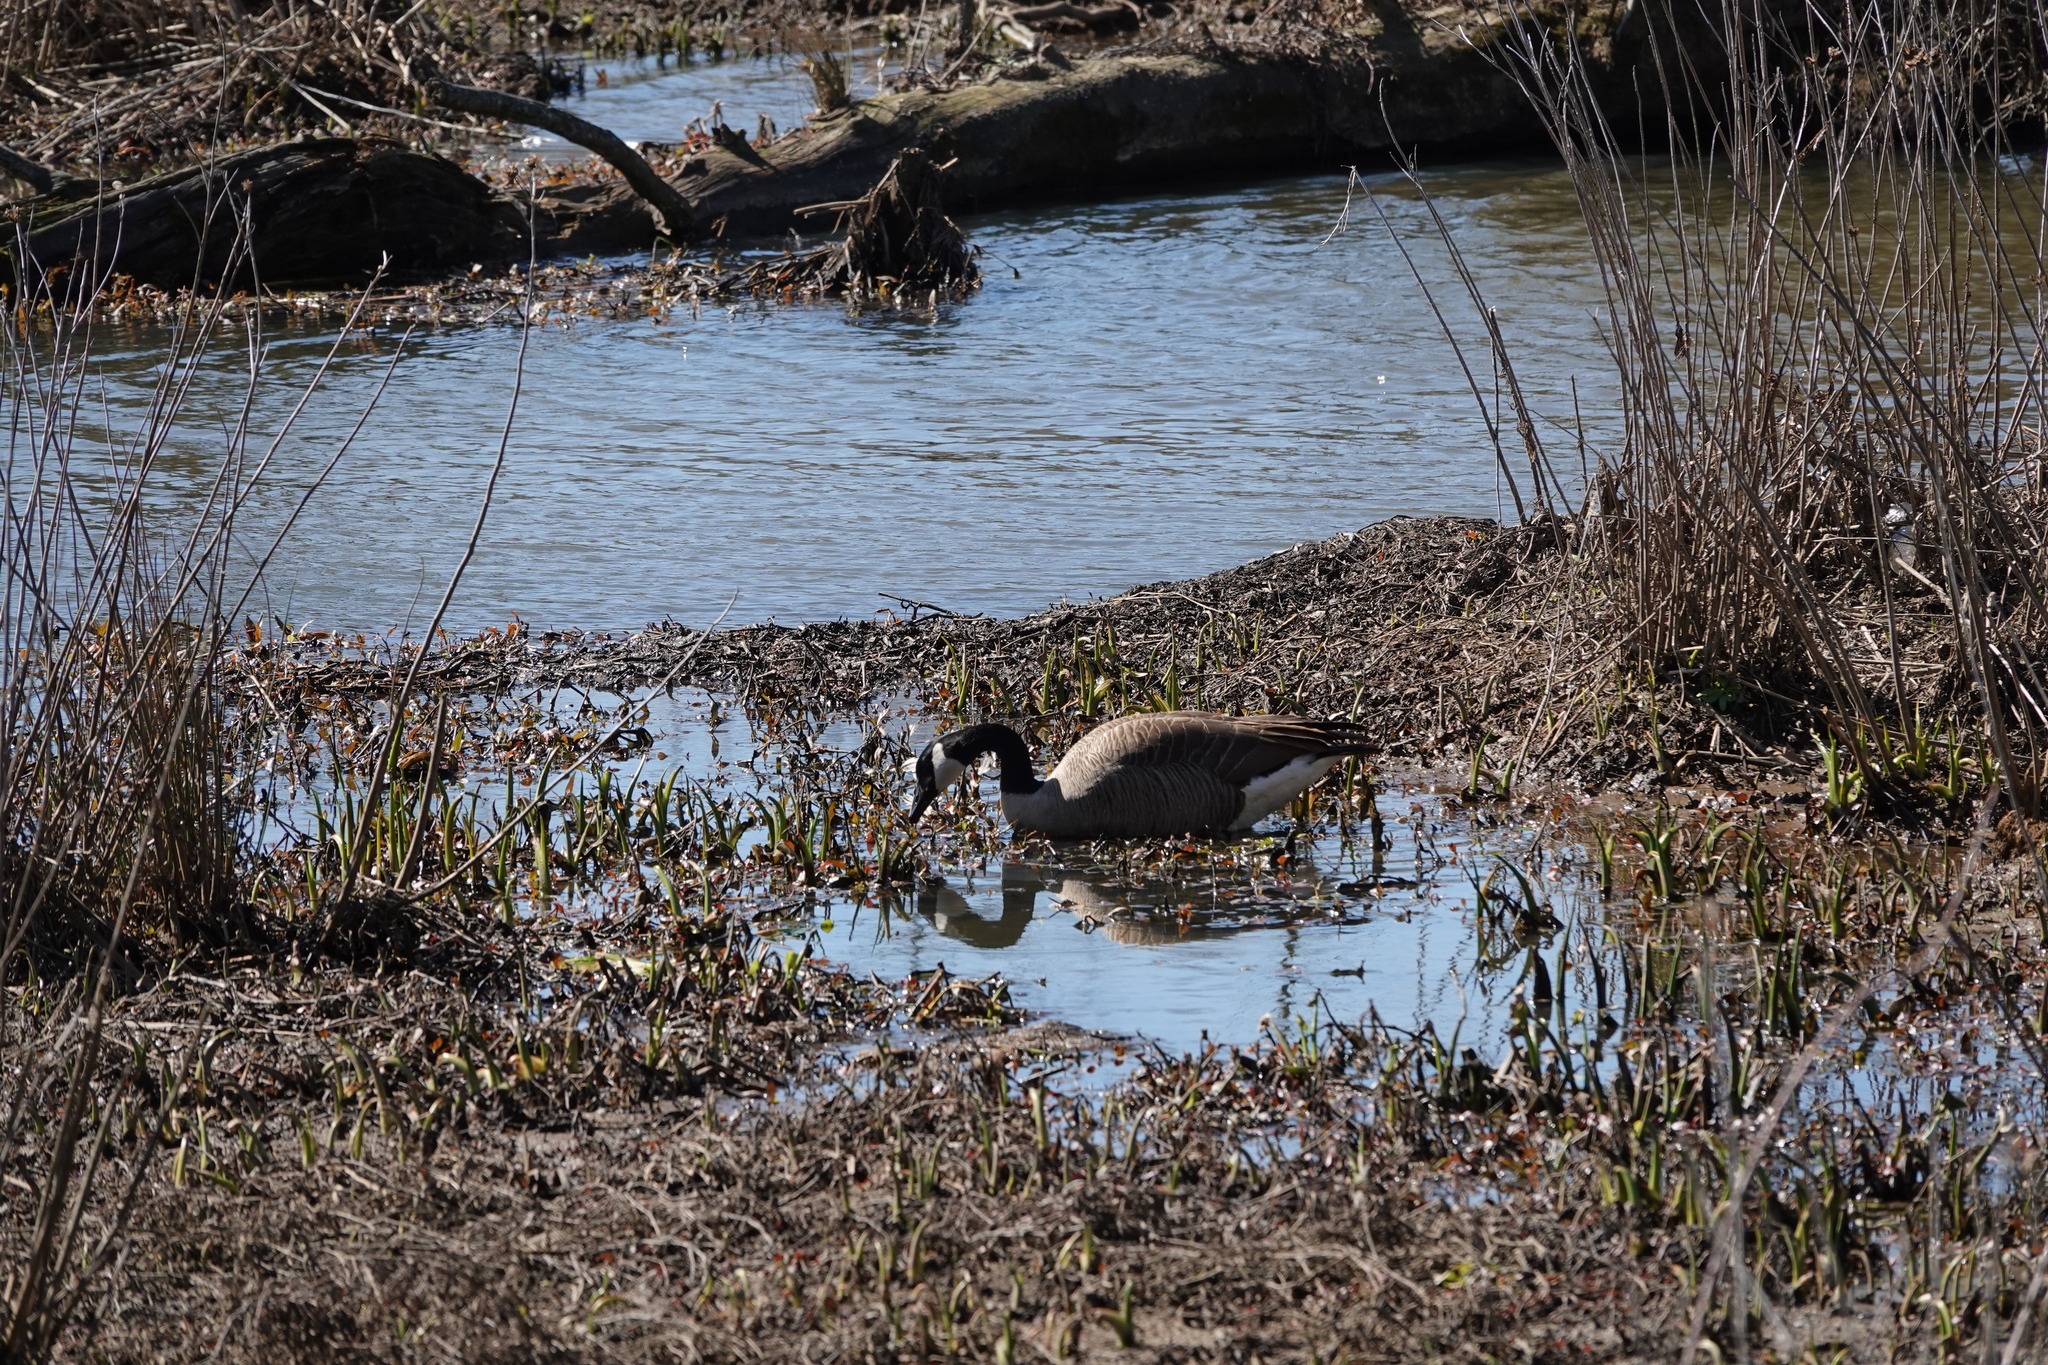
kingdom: Animalia
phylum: Chordata
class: Aves
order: Anseriformes
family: Anatidae
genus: Branta
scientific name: Branta canadensis
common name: Canada goose
